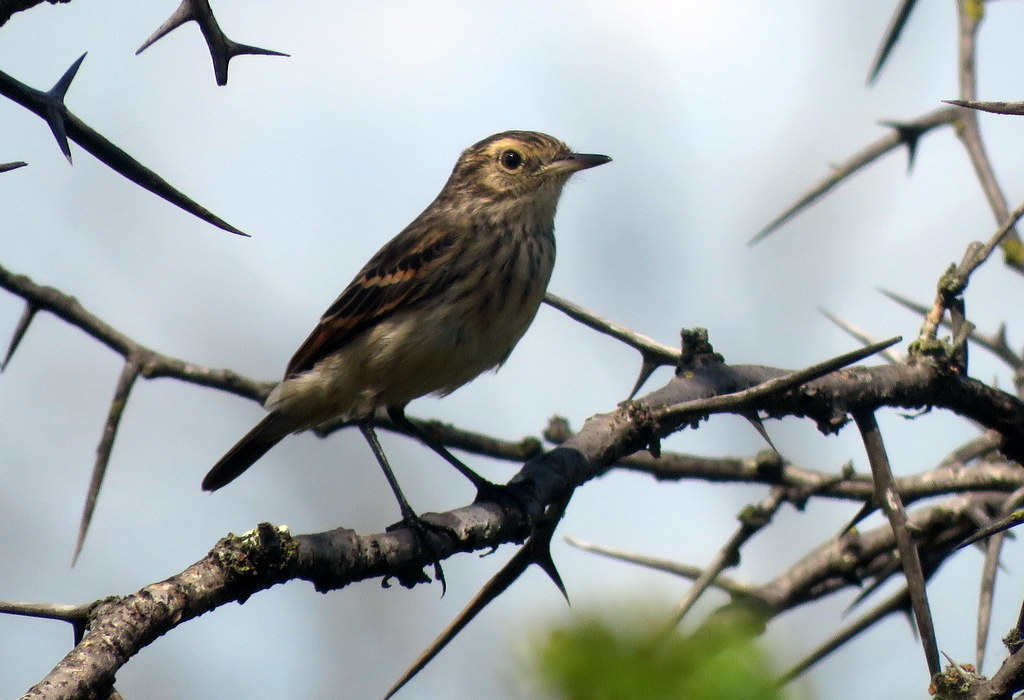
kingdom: Animalia
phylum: Chordata
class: Aves
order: Passeriformes
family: Tyrannidae
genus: Hymenops
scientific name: Hymenops perspicillatus
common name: Spectacled tyrant
